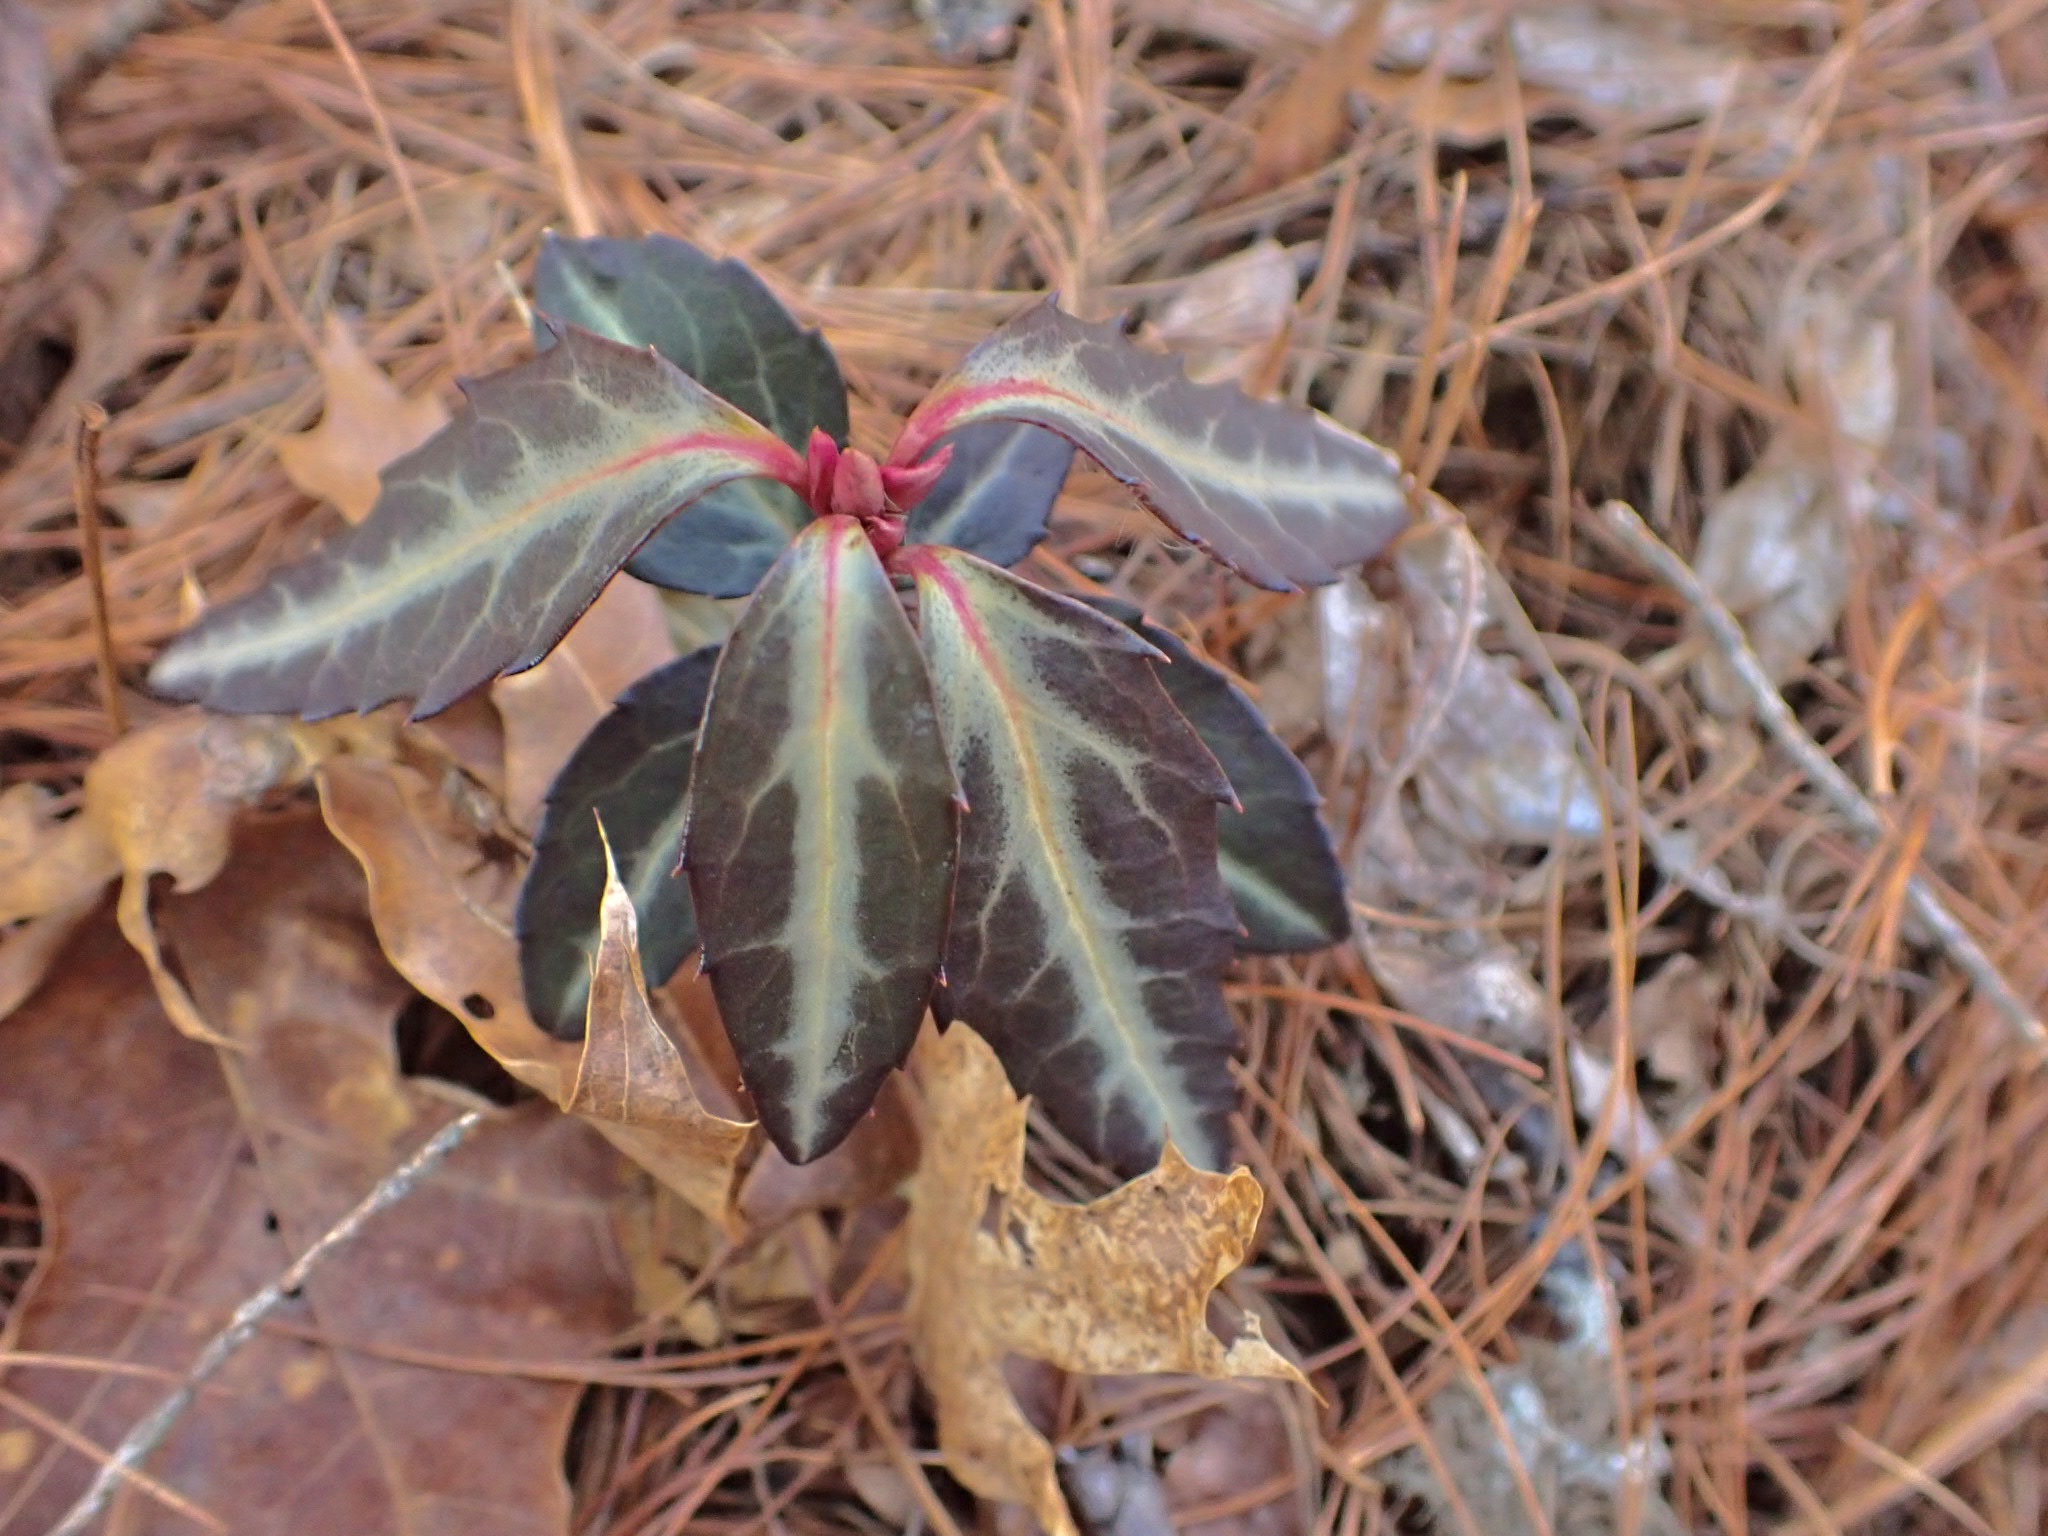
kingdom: Plantae
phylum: Tracheophyta
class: Magnoliopsida
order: Ericales
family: Ericaceae
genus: Chimaphila
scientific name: Chimaphila maculata
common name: Spotted pipsissewa
